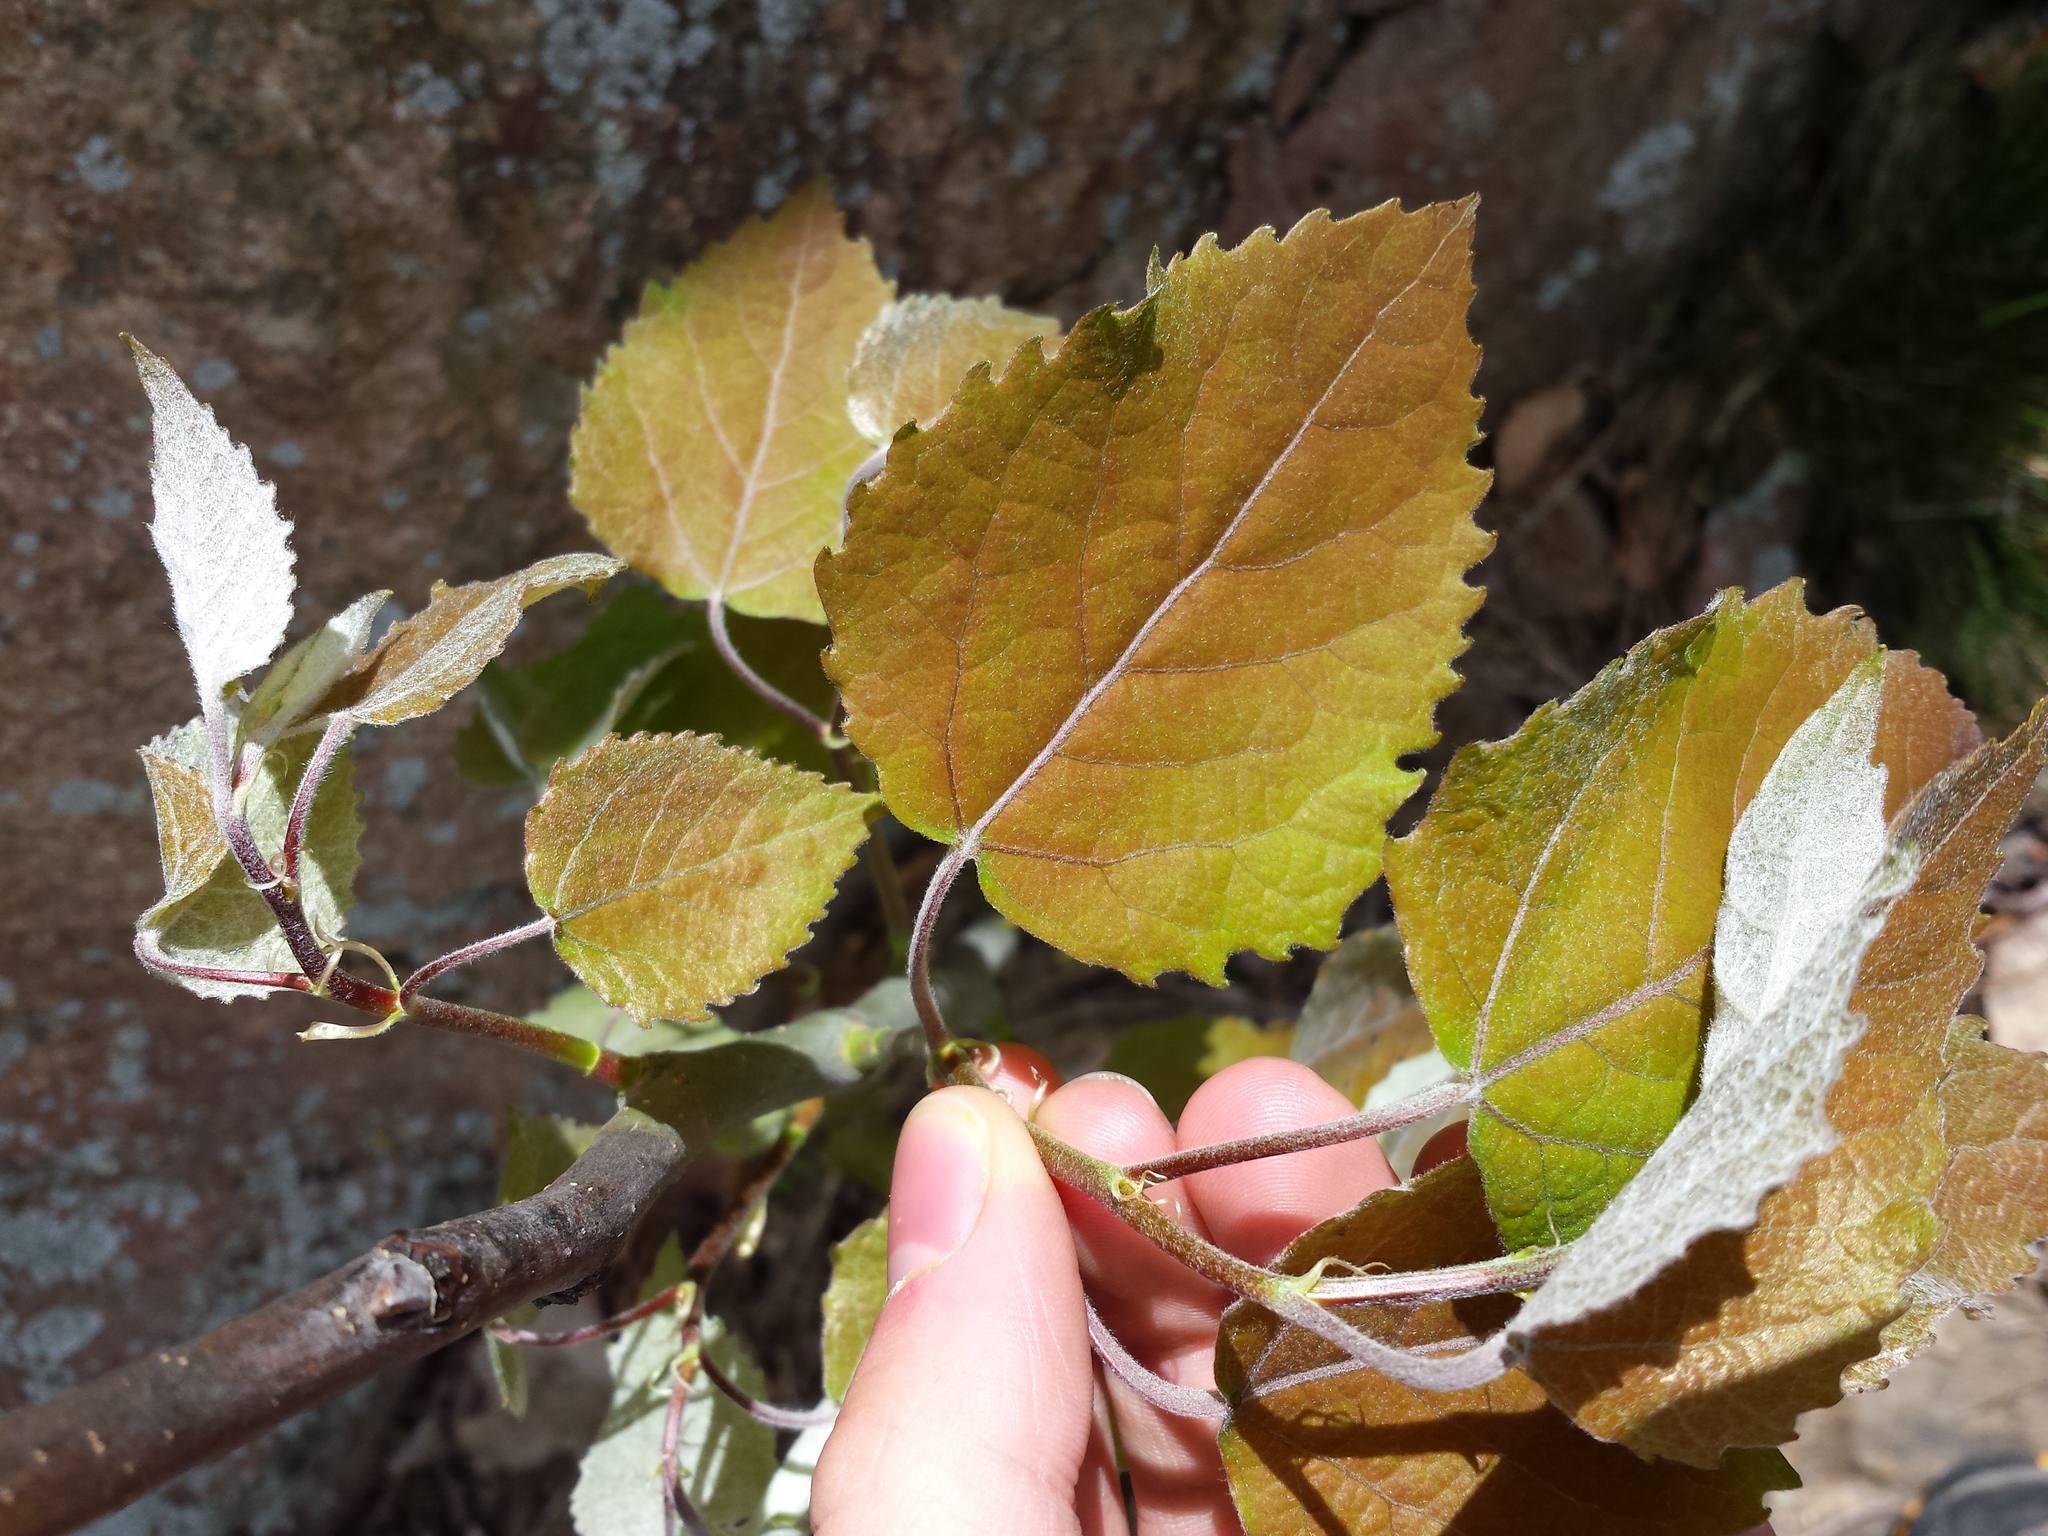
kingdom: Plantae
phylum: Tracheophyta
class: Magnoliopsida
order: Malpighiales
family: Salicaceae
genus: Populus
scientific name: Populus grandidentata
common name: Bigtooth aspen
